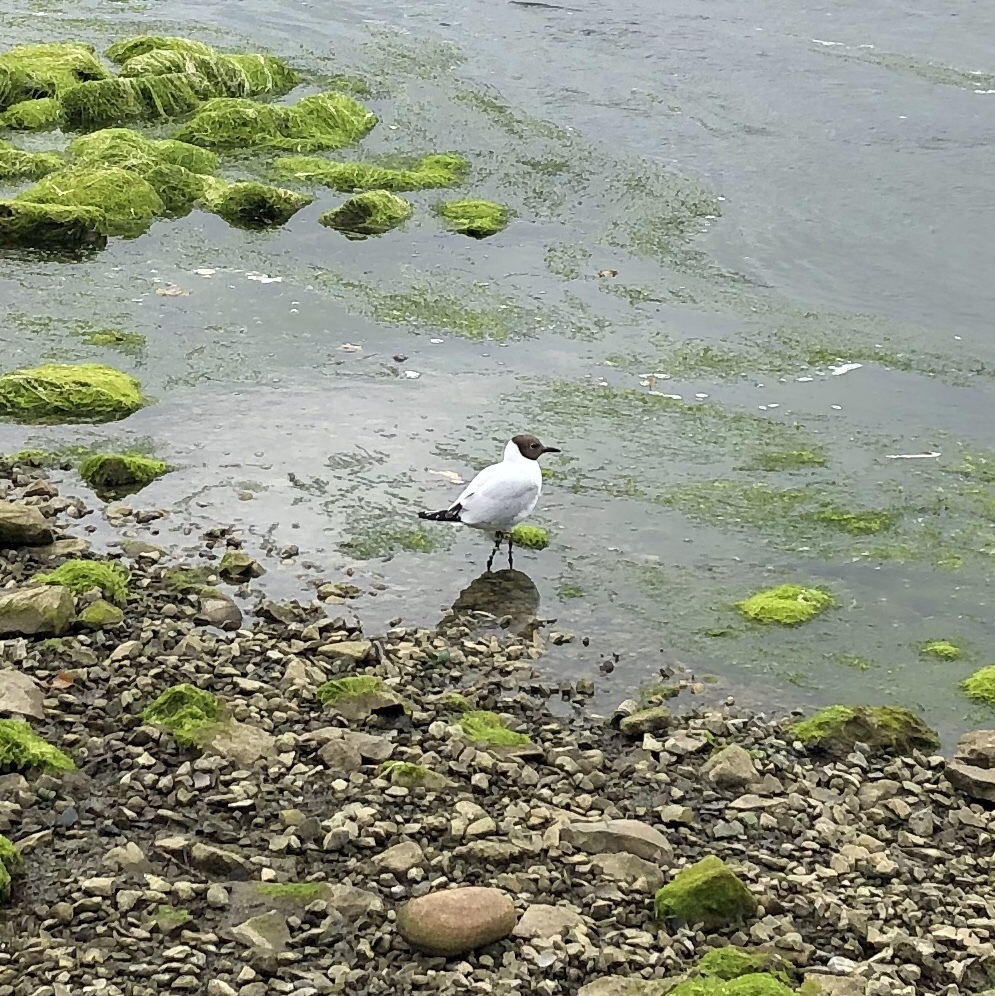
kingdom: Animalia
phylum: Chordata
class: Aves
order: Charadriiformes
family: Laridae
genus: Chroicocephalus
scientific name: Chroicocephalus ridibundus
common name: Black-headed gull
